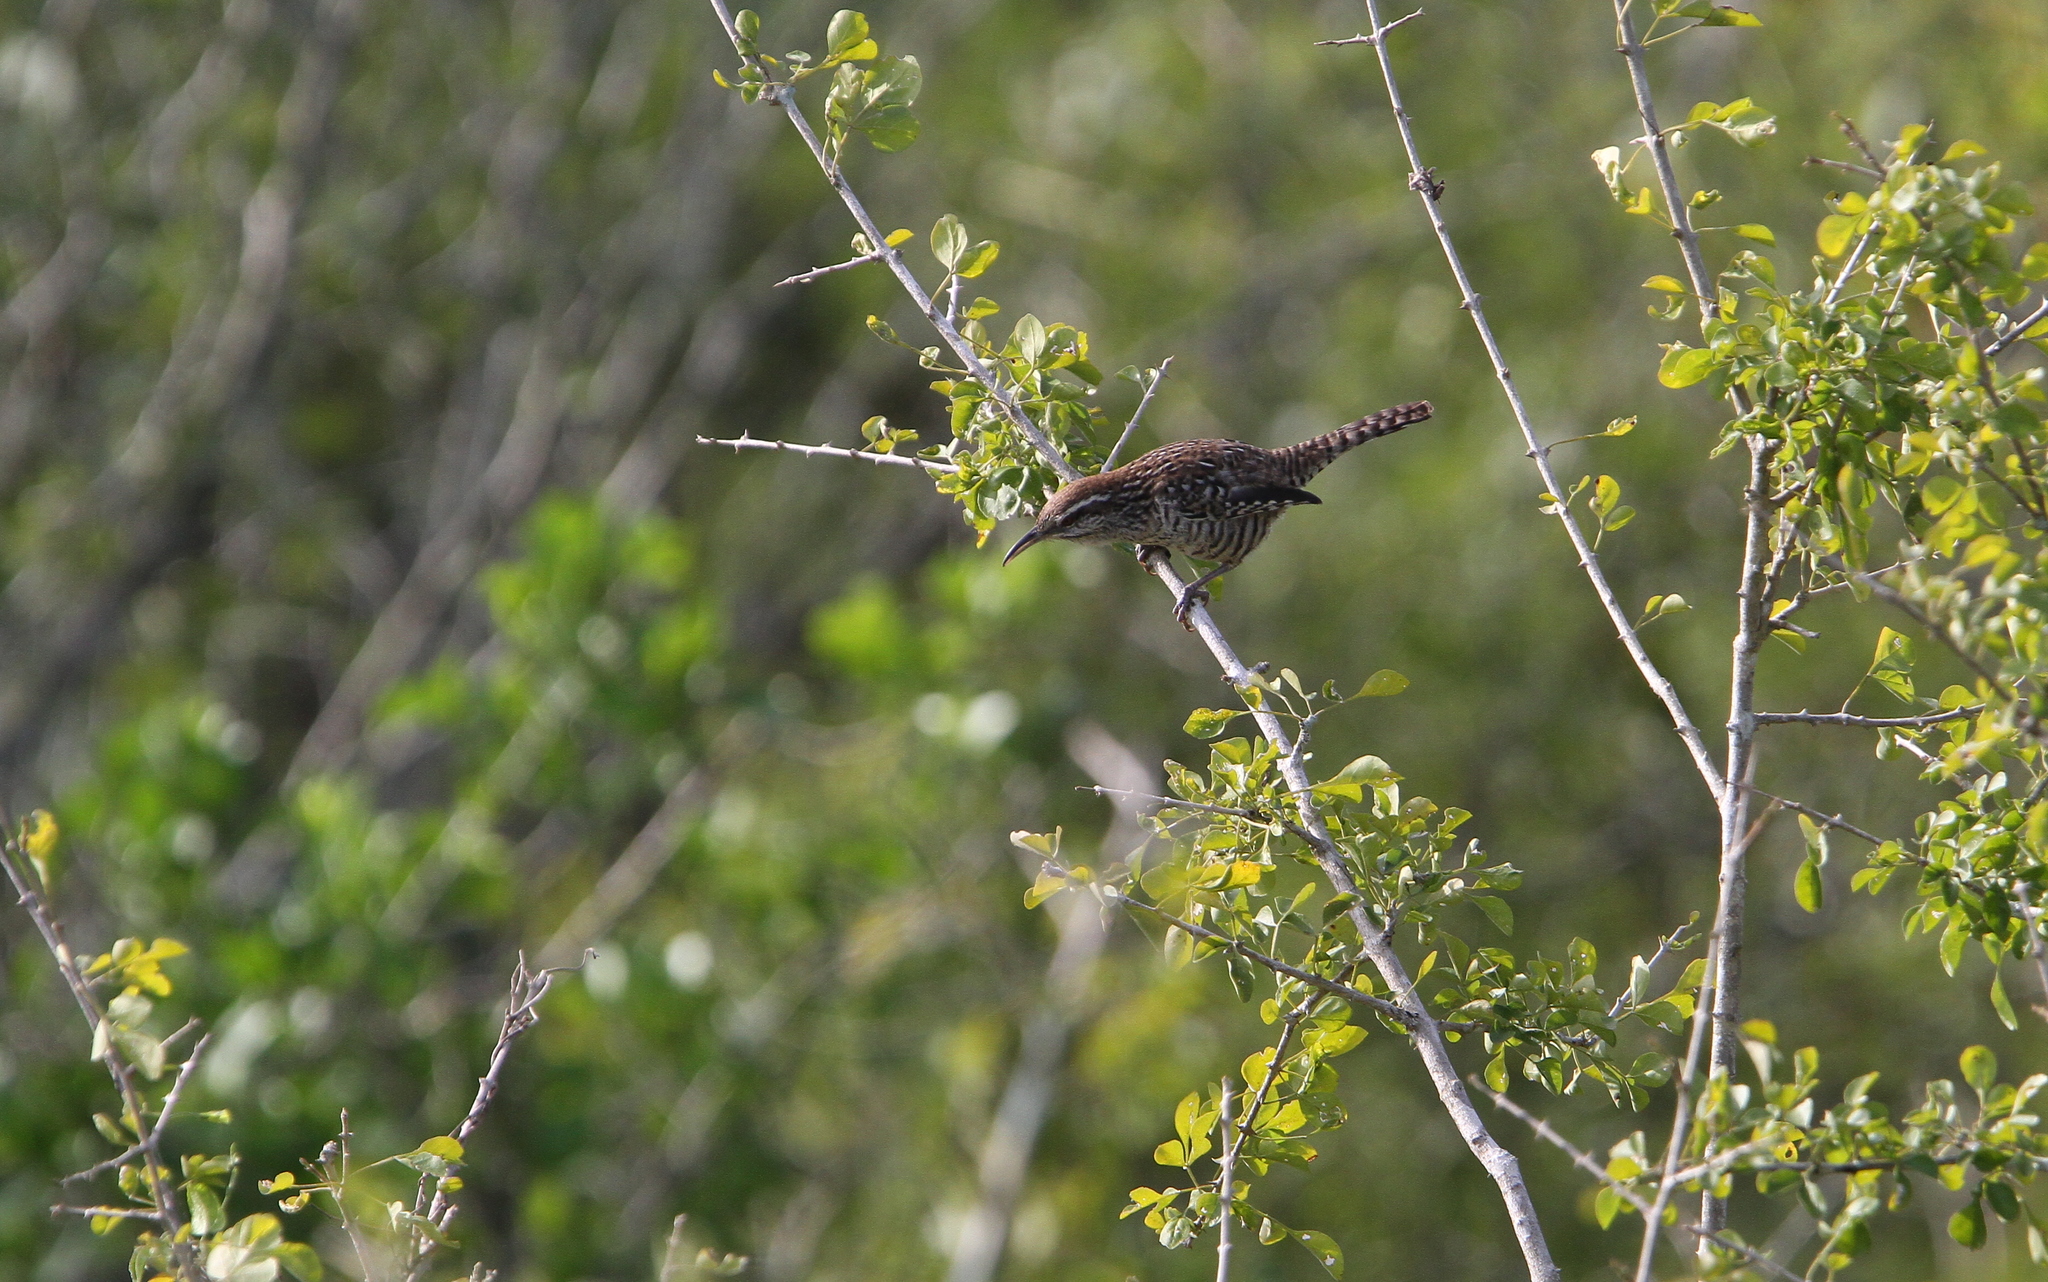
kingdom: Animalia
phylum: Chordata
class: Aves
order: Passeriformes
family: Troglodytidae
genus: Campylorhynchus
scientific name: Campylorhynchus yucatanicus
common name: Yucatan wren
